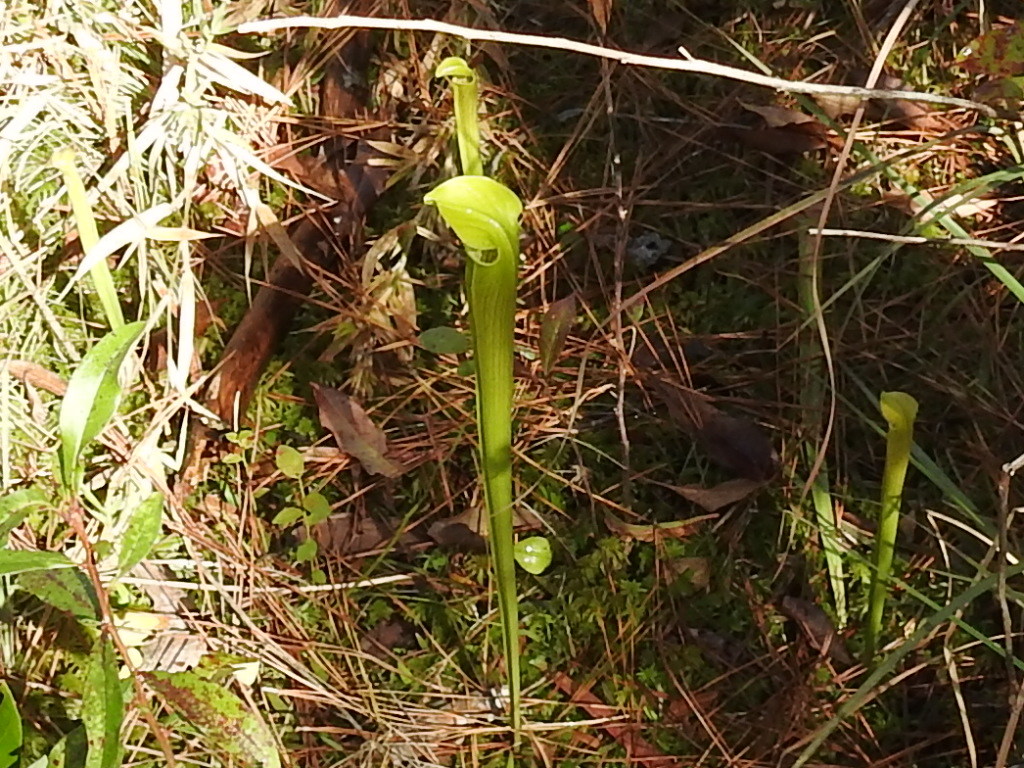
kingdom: Plantae
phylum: Tracheophyta
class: Magnoliopsida
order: Ericales
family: Sarraceniaceae
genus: Sarracenia
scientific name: Sarracenia alata
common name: Yellow trumpets
